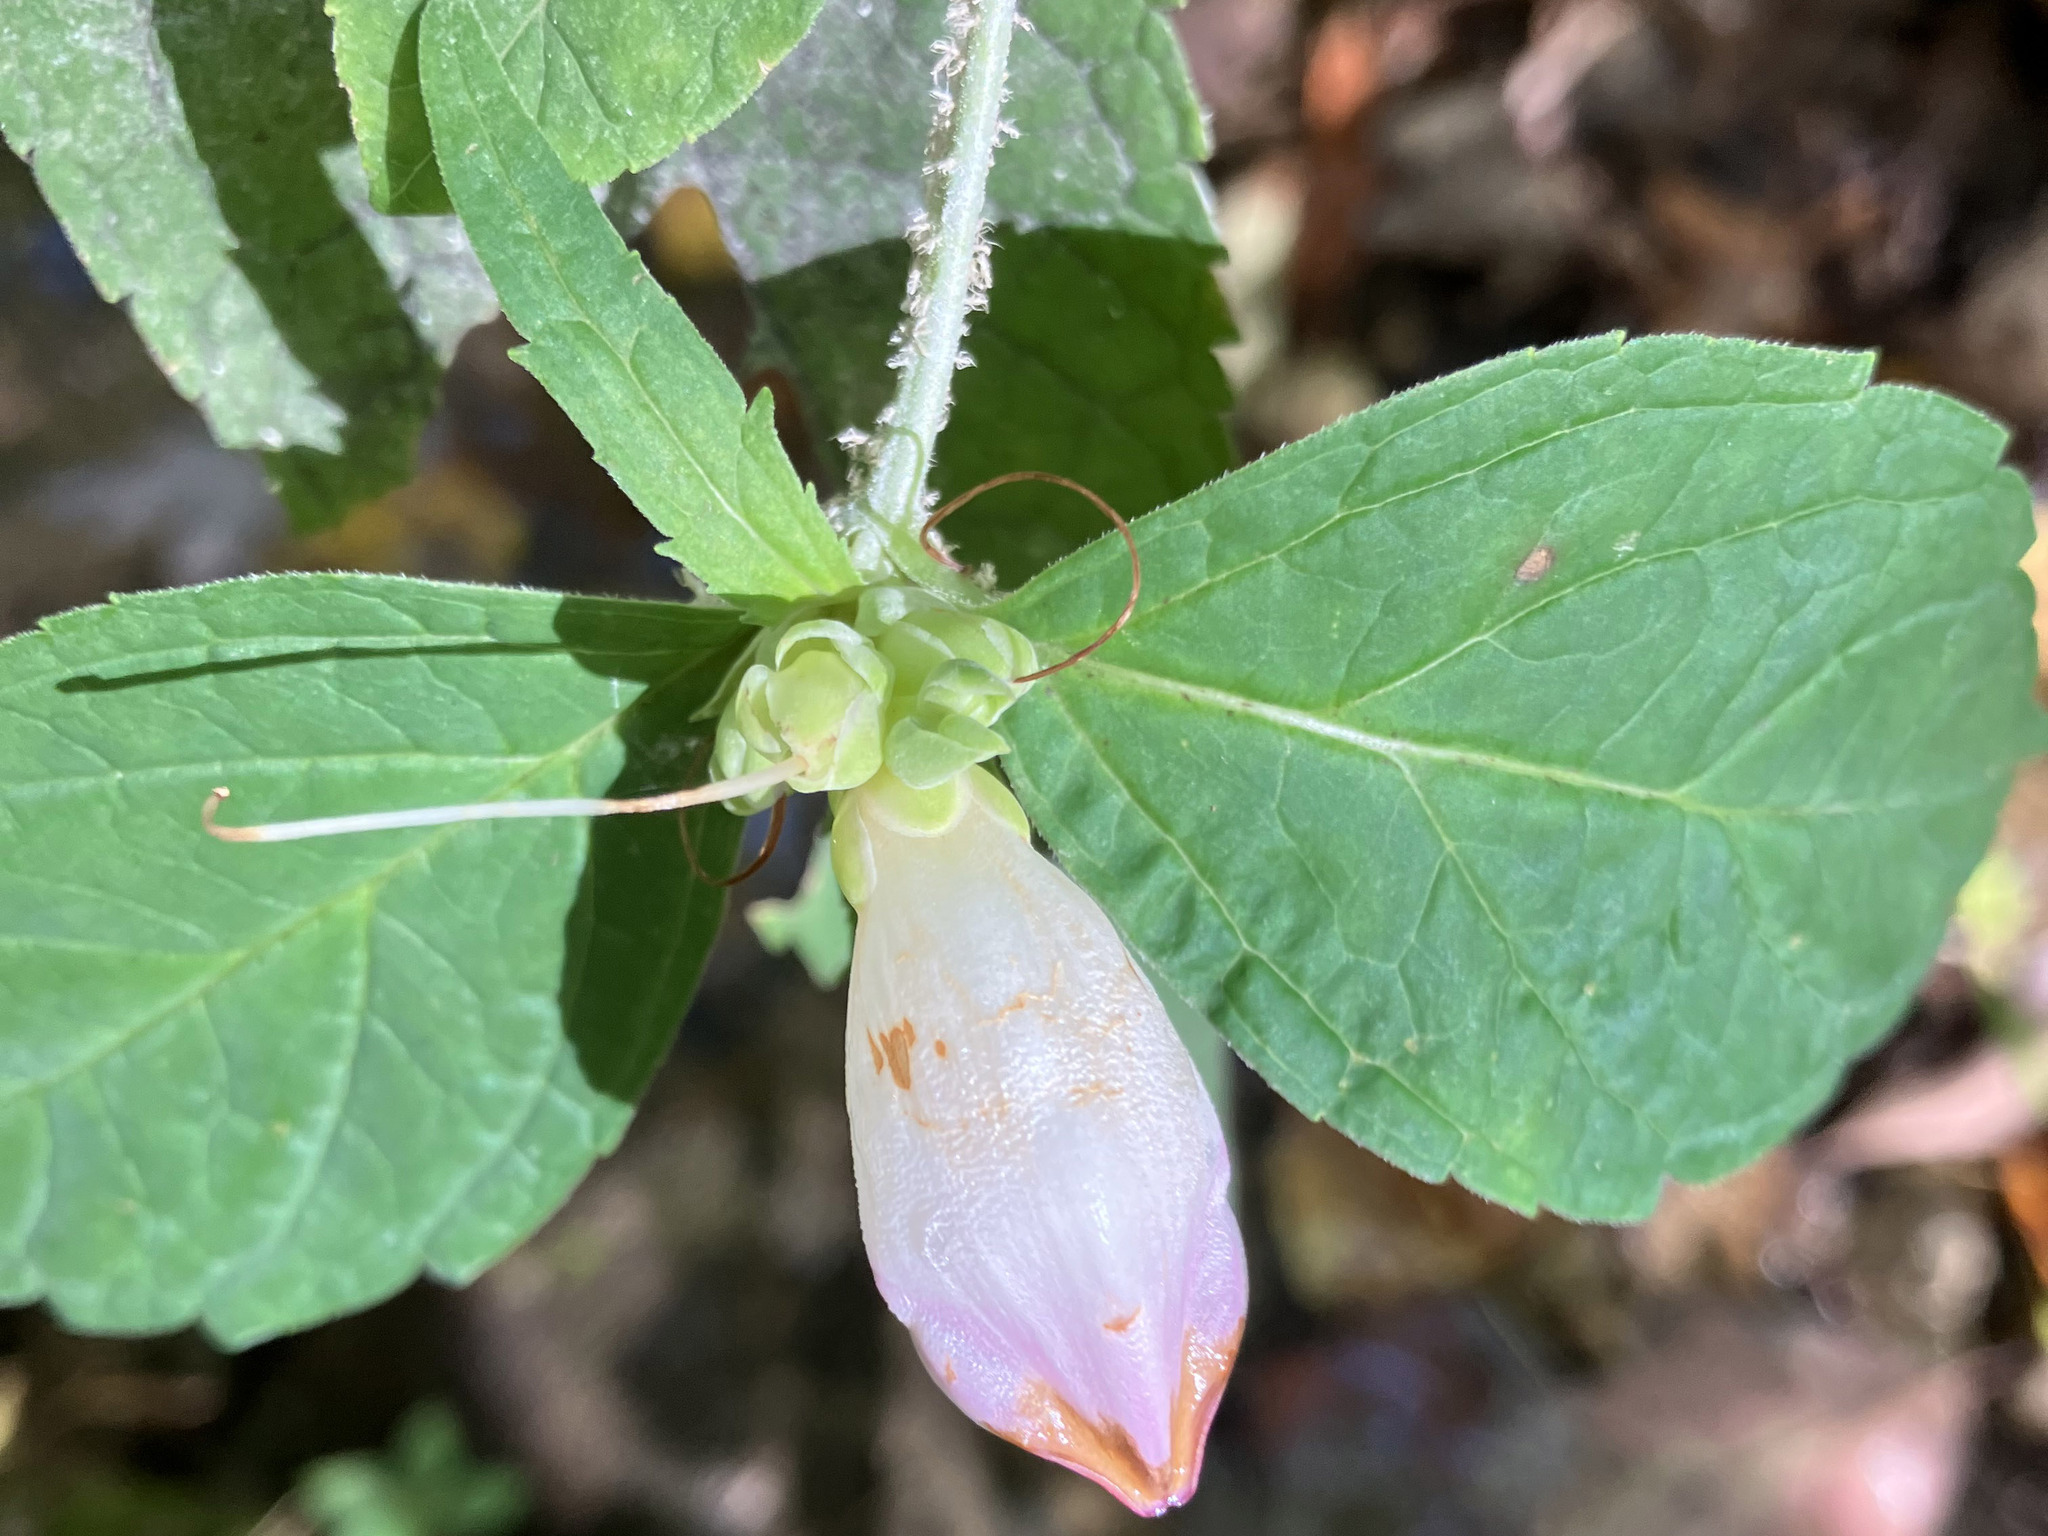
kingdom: Plantae
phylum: Tracheophyta
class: Magnoliopsida
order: Lamiales
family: Plantaginaceae
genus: Chelone
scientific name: Chelone glabra
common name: Snakehead
